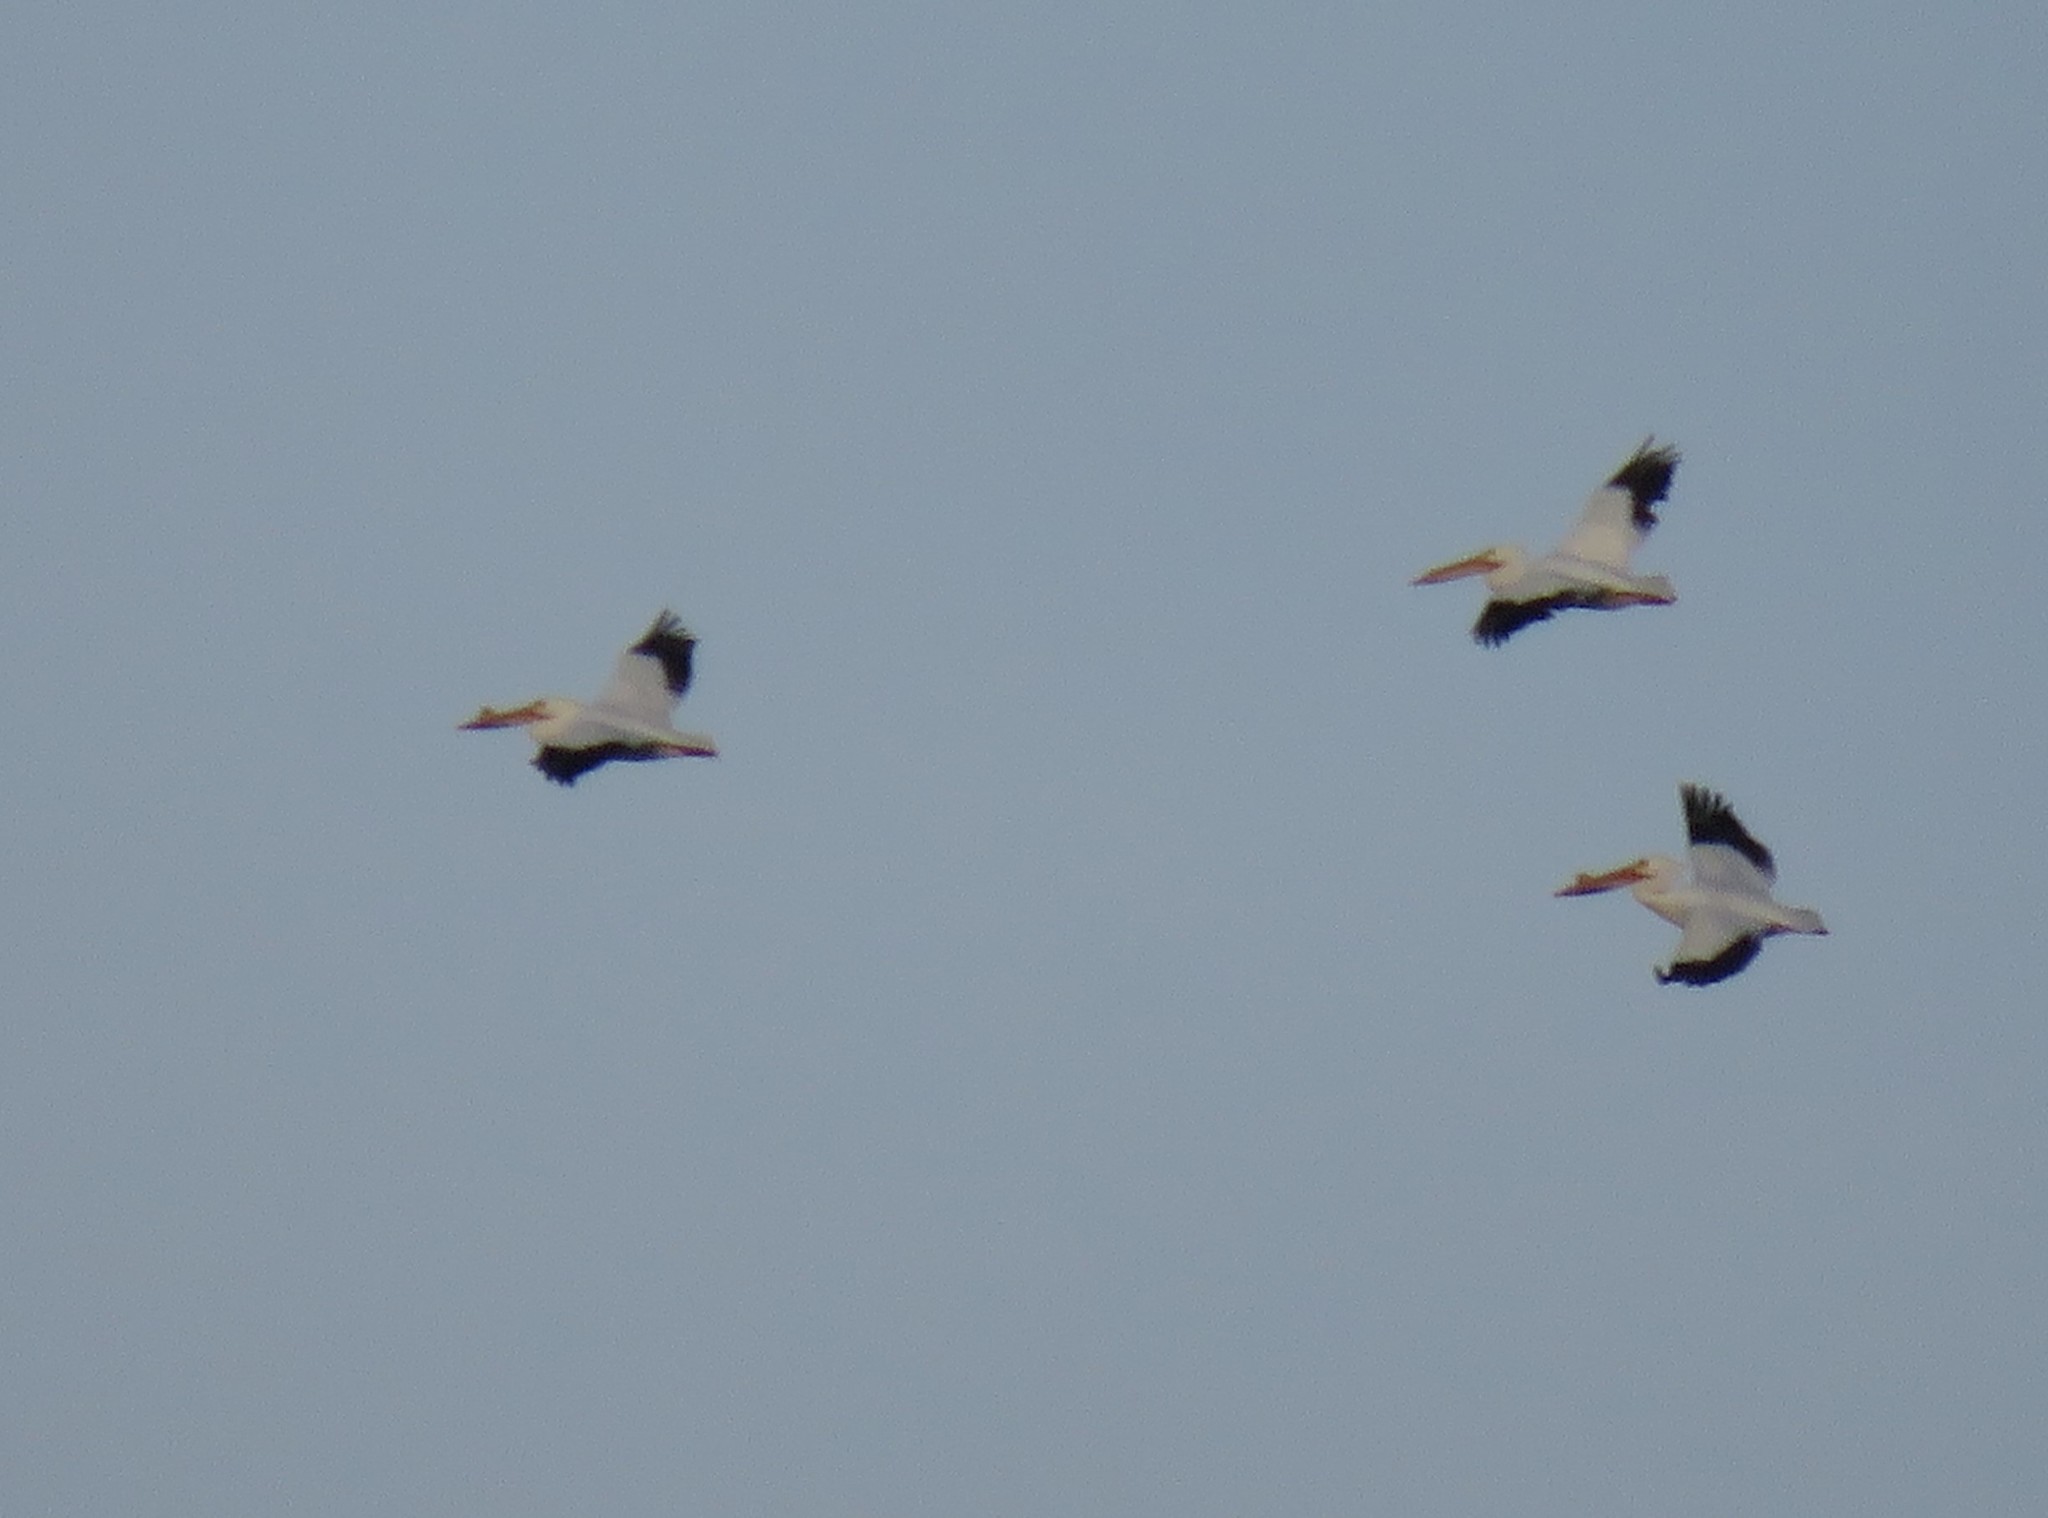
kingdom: Animalia
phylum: Chordata
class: Aves
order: Pelecaniformes
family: Pelecanidae
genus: Pelecanus
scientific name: Pelecanus erythrorhynchos
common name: American white pelican
